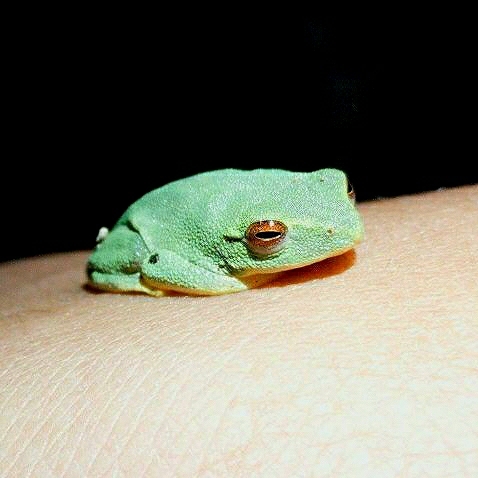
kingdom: Animalia
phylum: Chordata
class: Amphibia
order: Anura
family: Rhacophoridae
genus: Raorchestes
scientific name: Raorchestes jayarami
